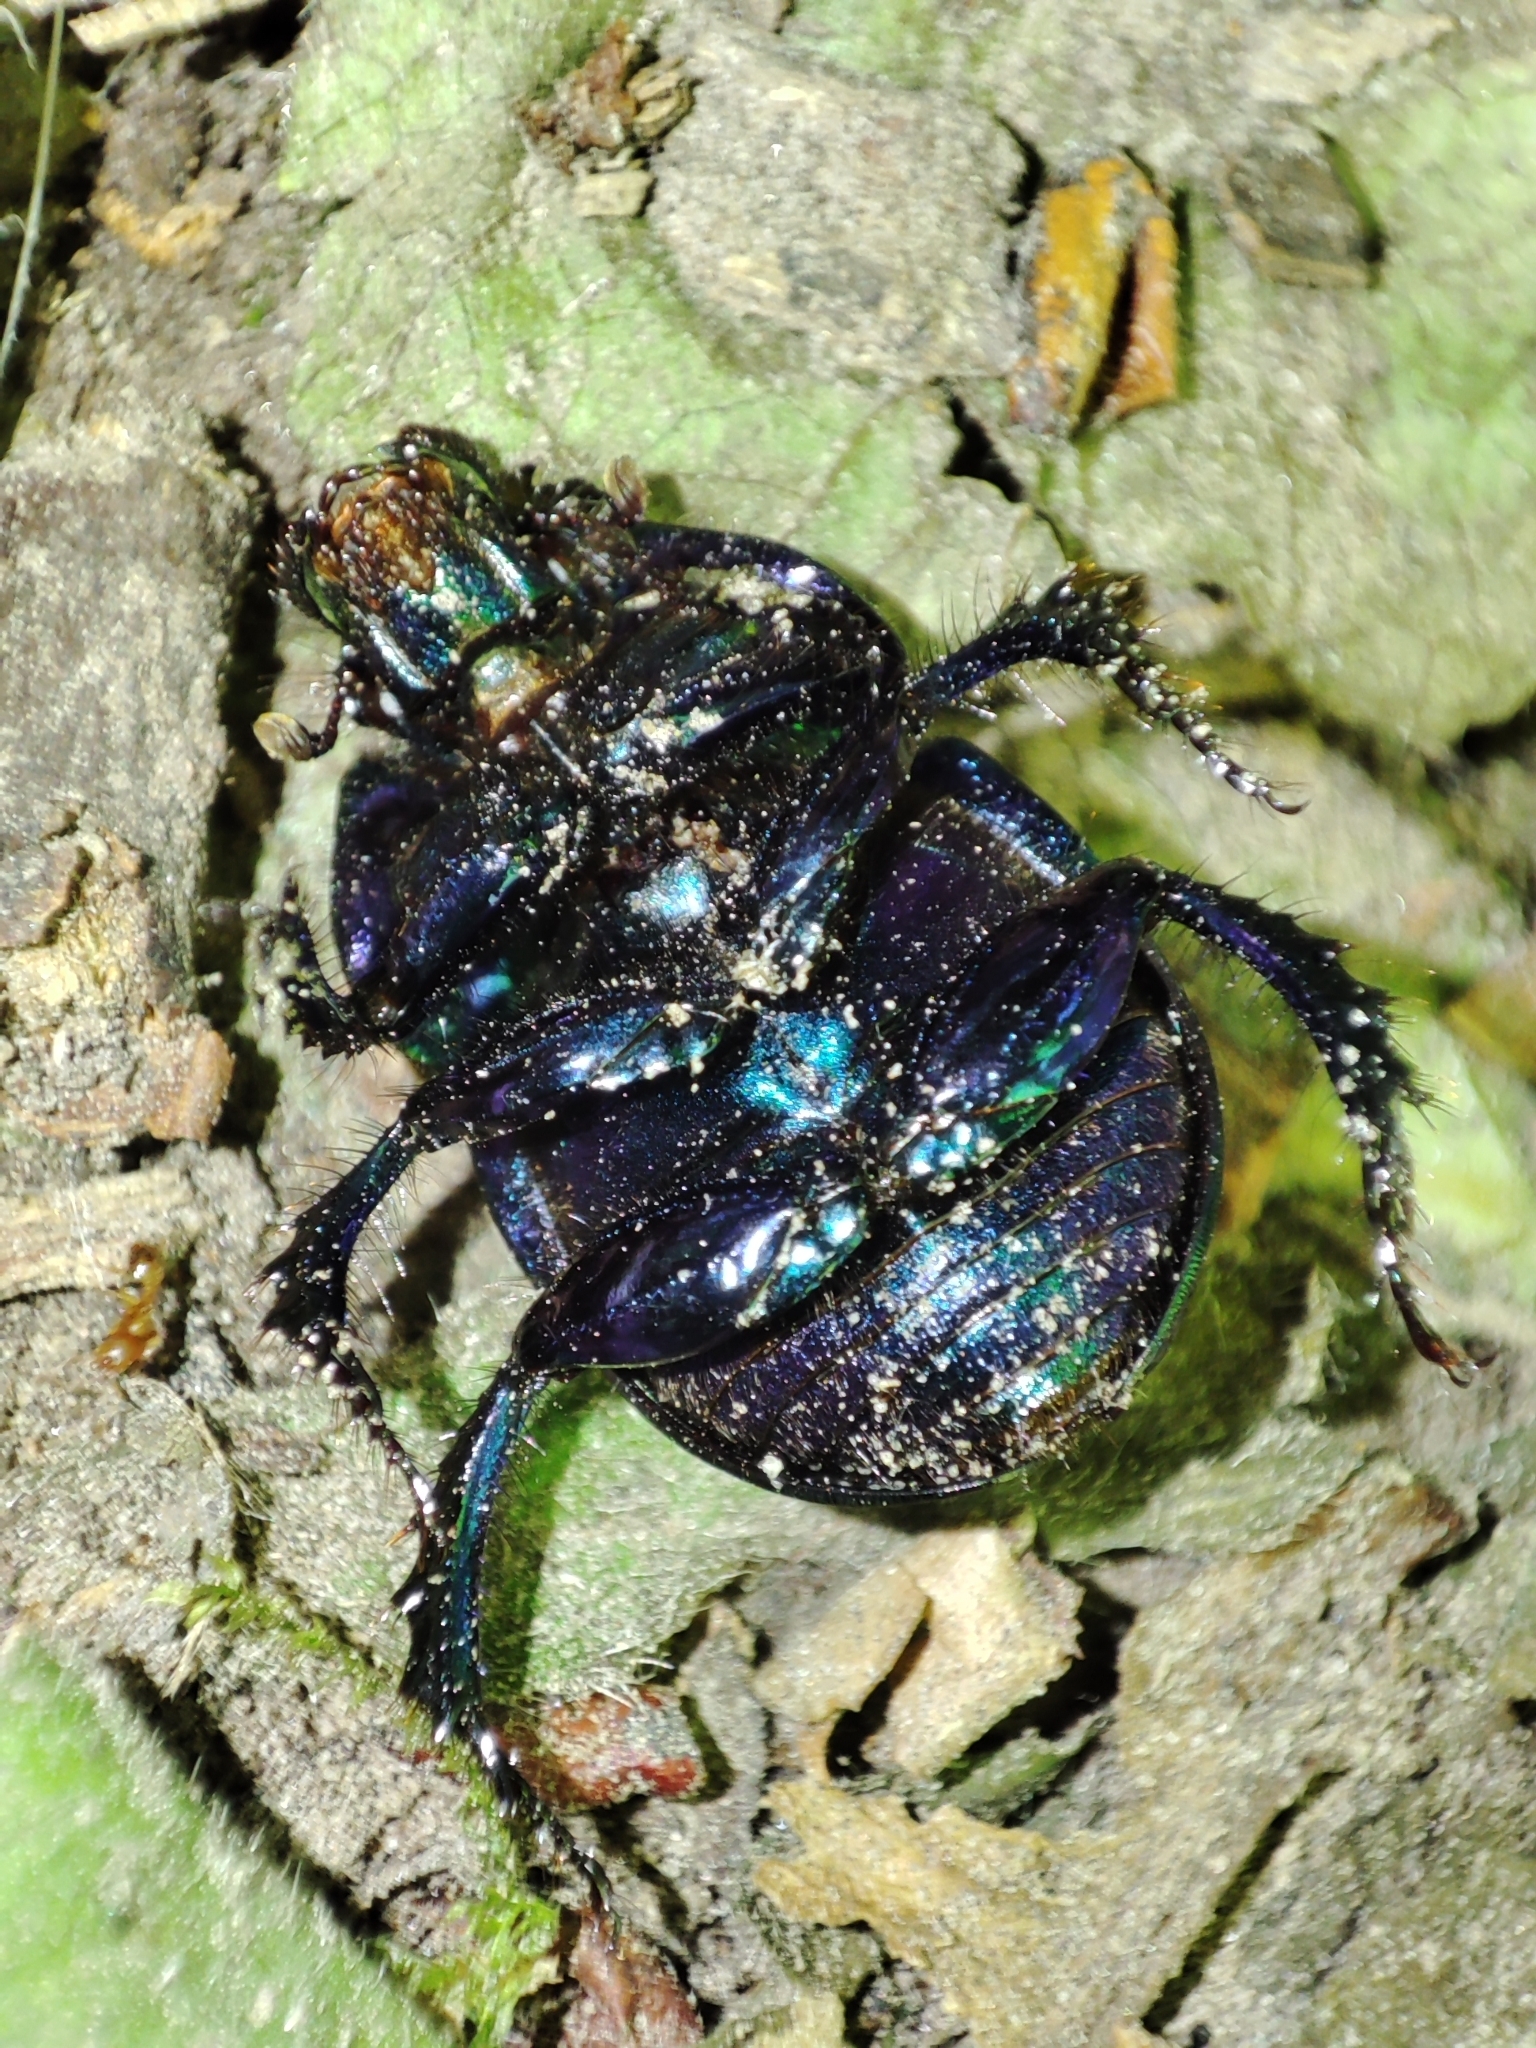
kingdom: Animalia
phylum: Arthropoda
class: Insecta
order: Coleoptera
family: Geotrupidae
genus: Anoplotrupes
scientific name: Anoplotrupes stercorosus
